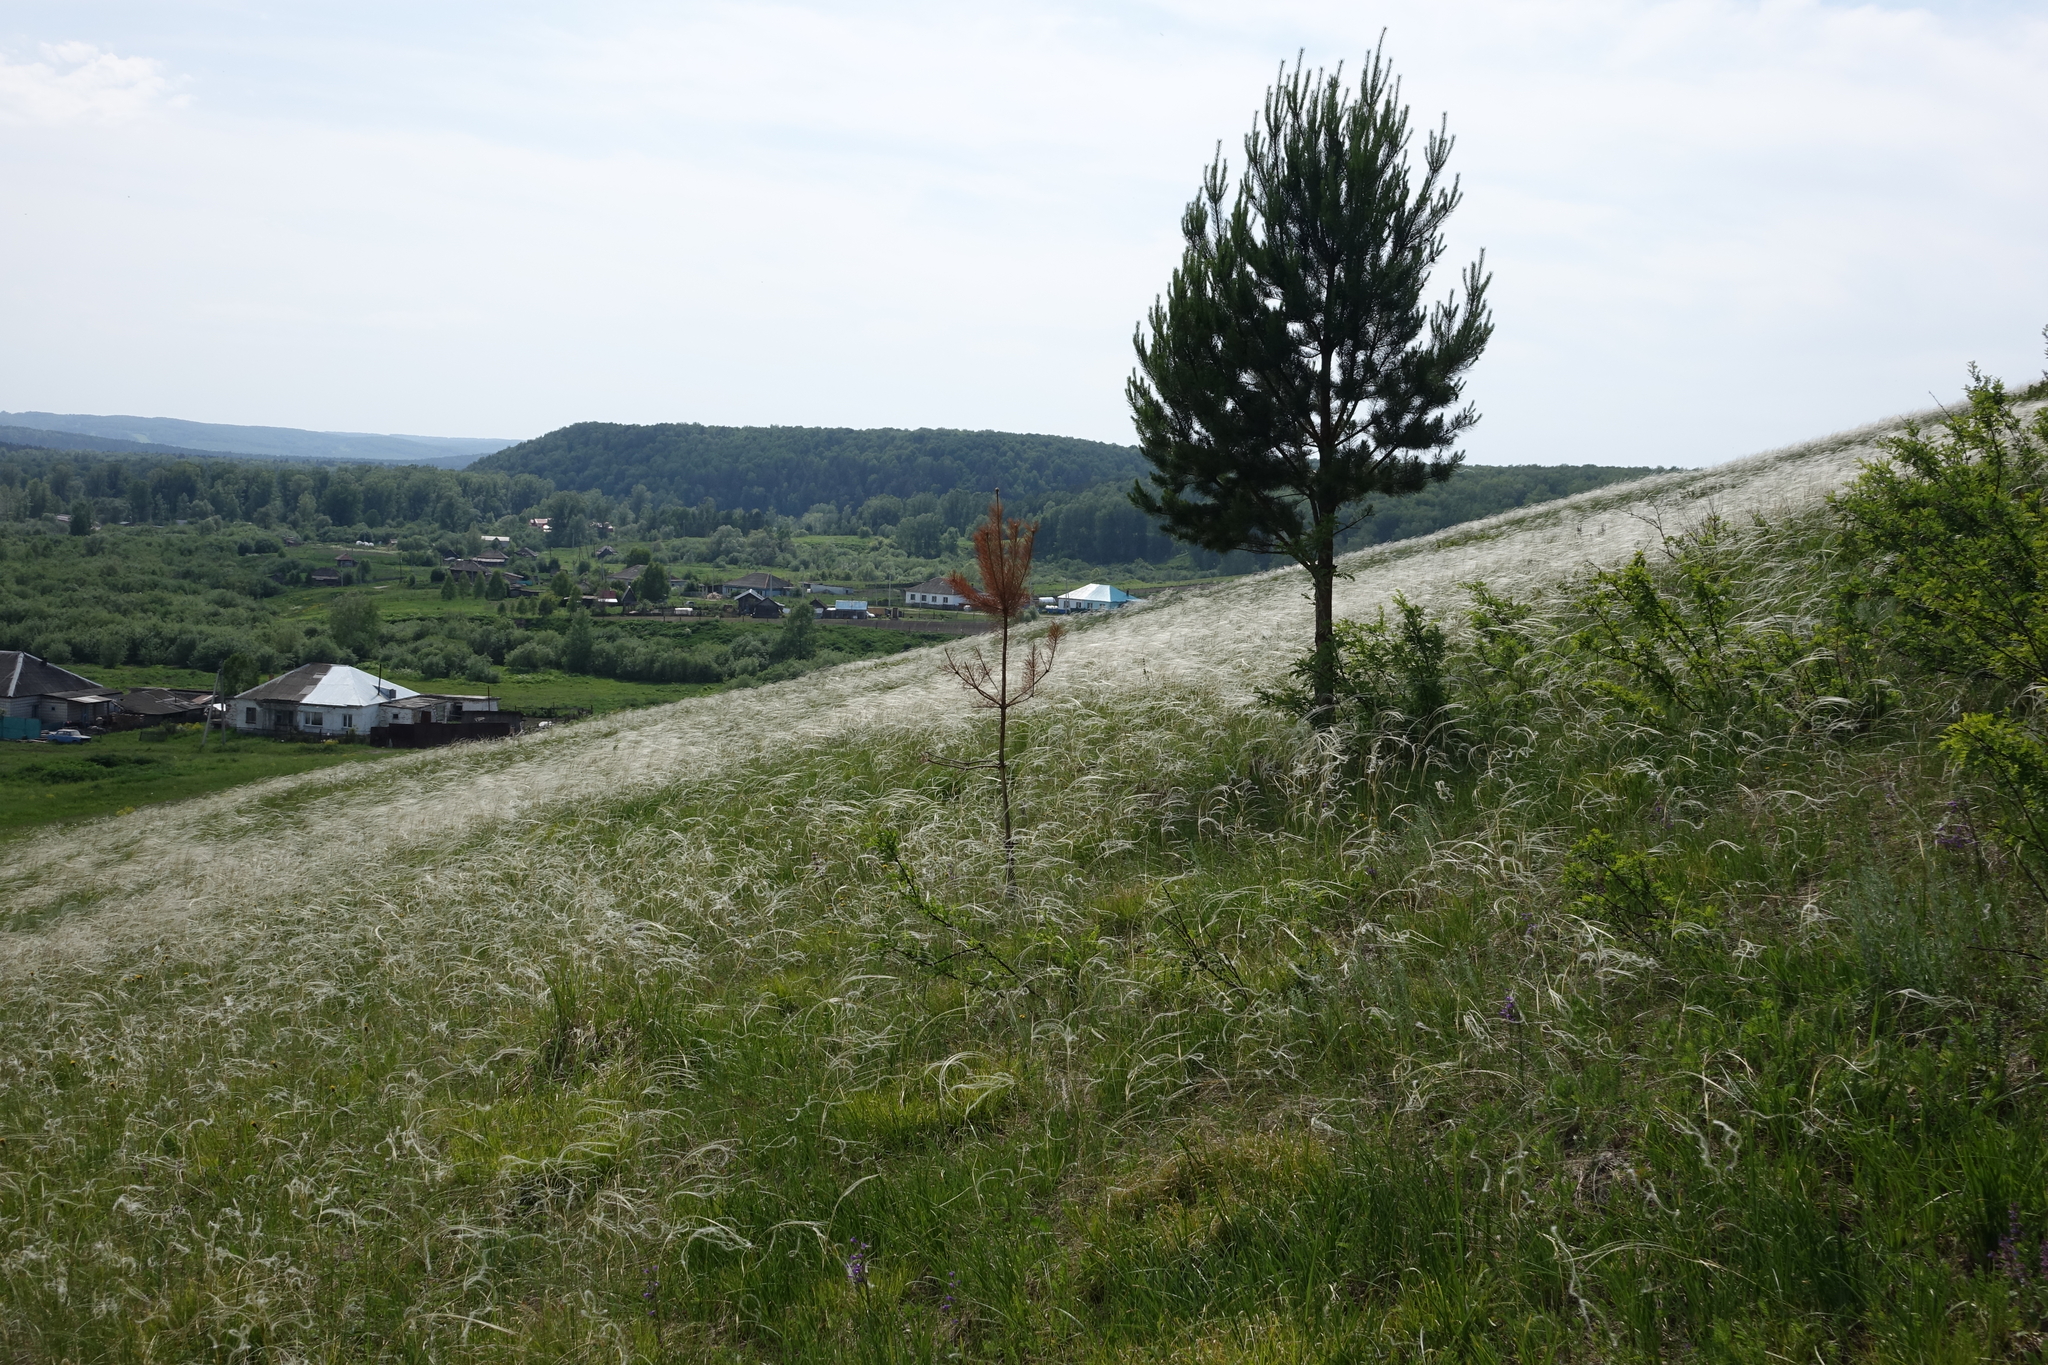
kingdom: Plantae
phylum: Tracheophyta
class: Liliopsida
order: Poales
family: Poaceae
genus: Stipa
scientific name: Stipa pennata
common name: European feather grass
